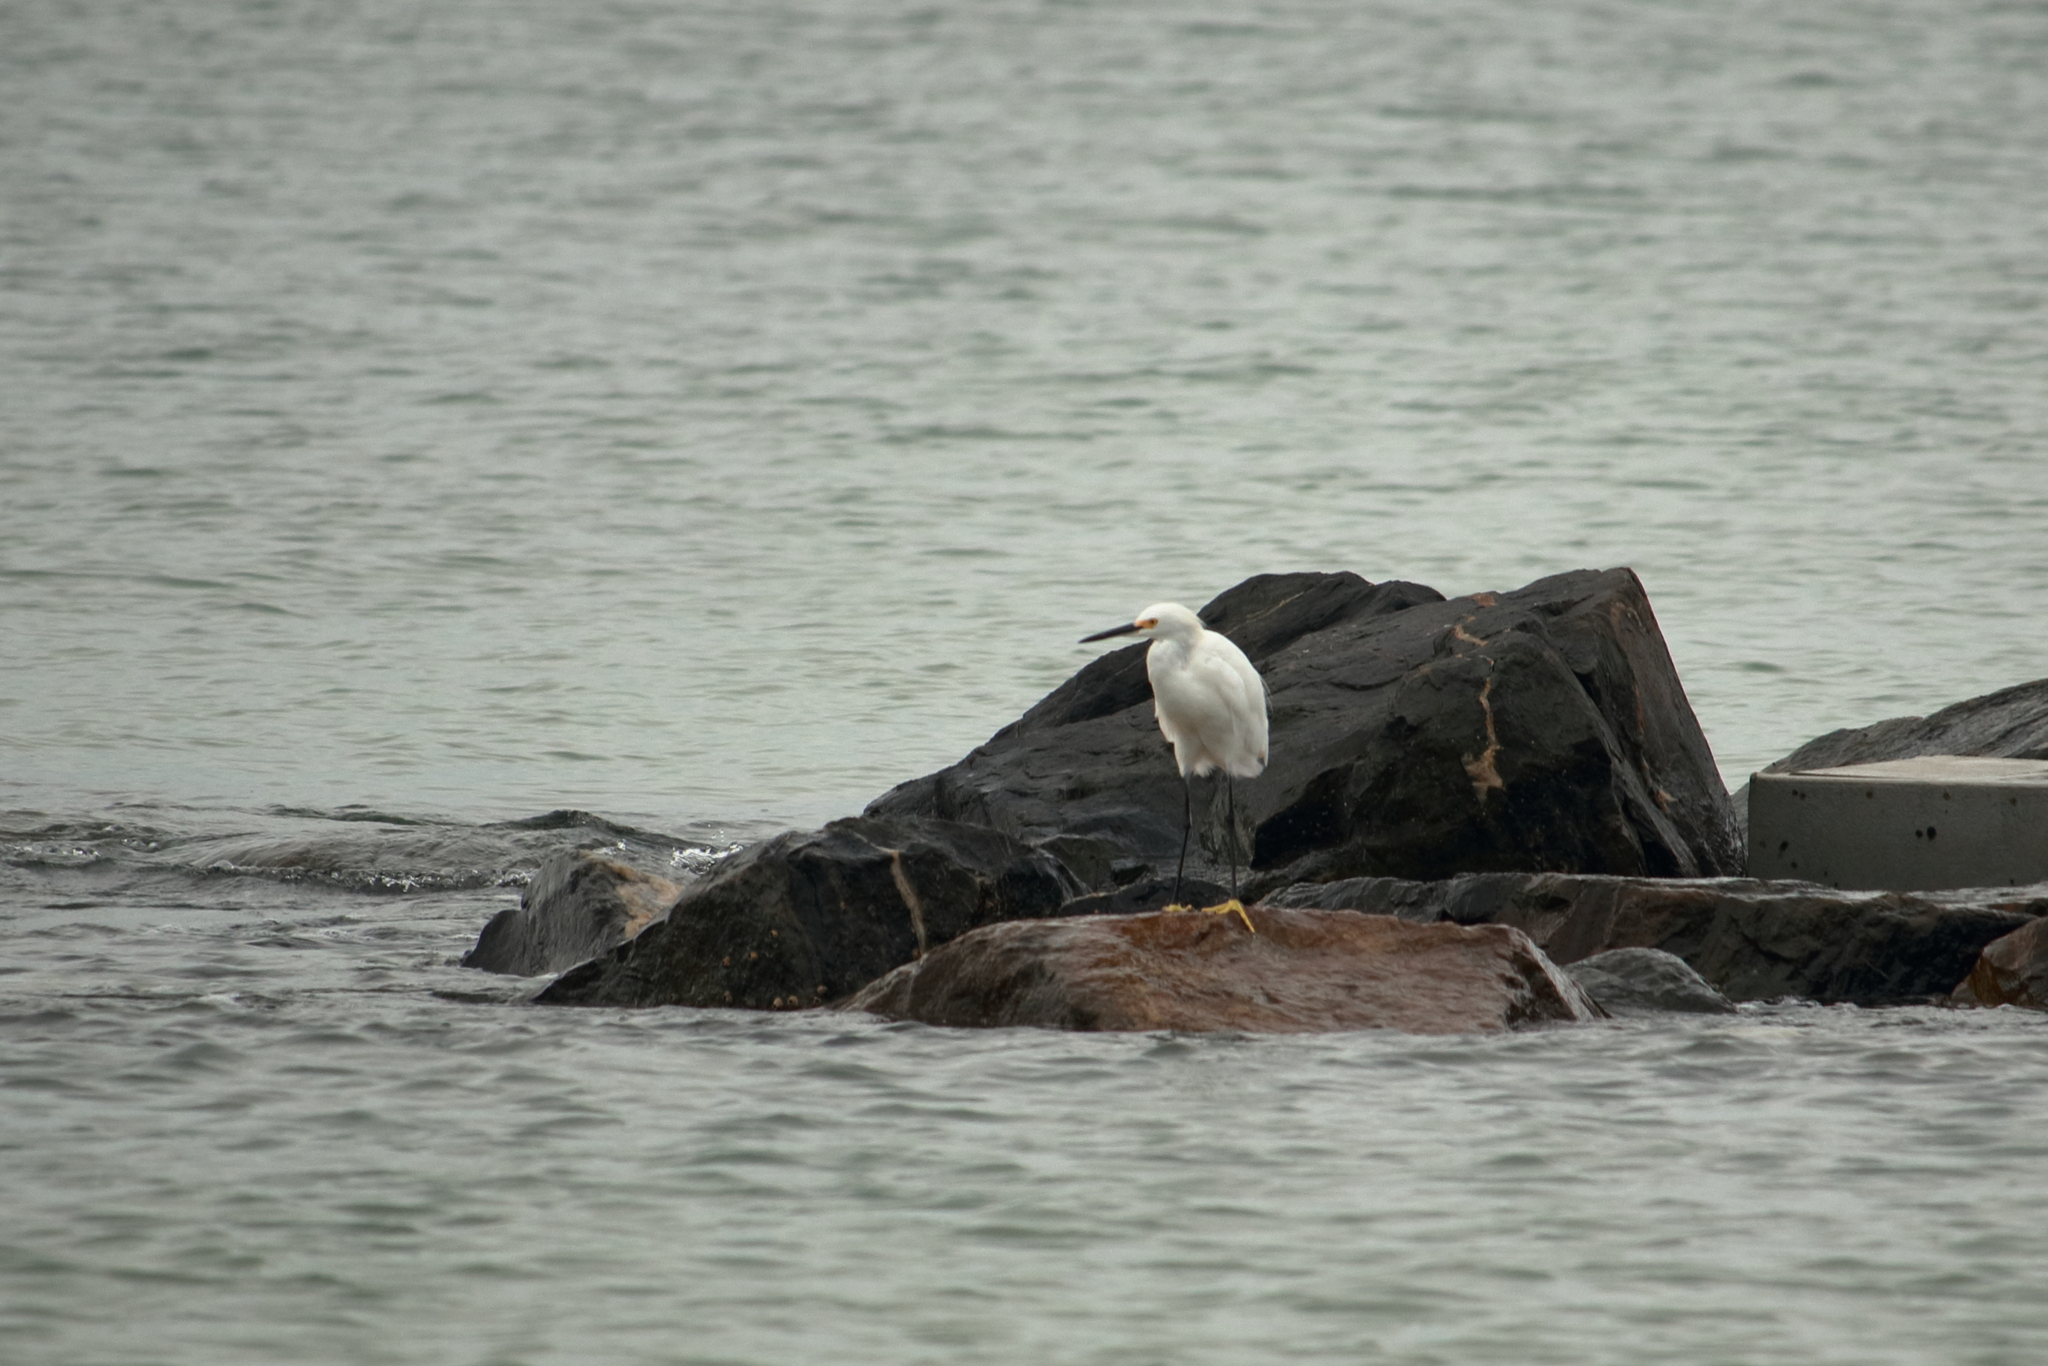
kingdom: Animalia
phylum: Chordata
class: Aves
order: Pelecaniformes
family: Ardeidae
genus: Egretta
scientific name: Egretta thula
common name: Snowy egret
